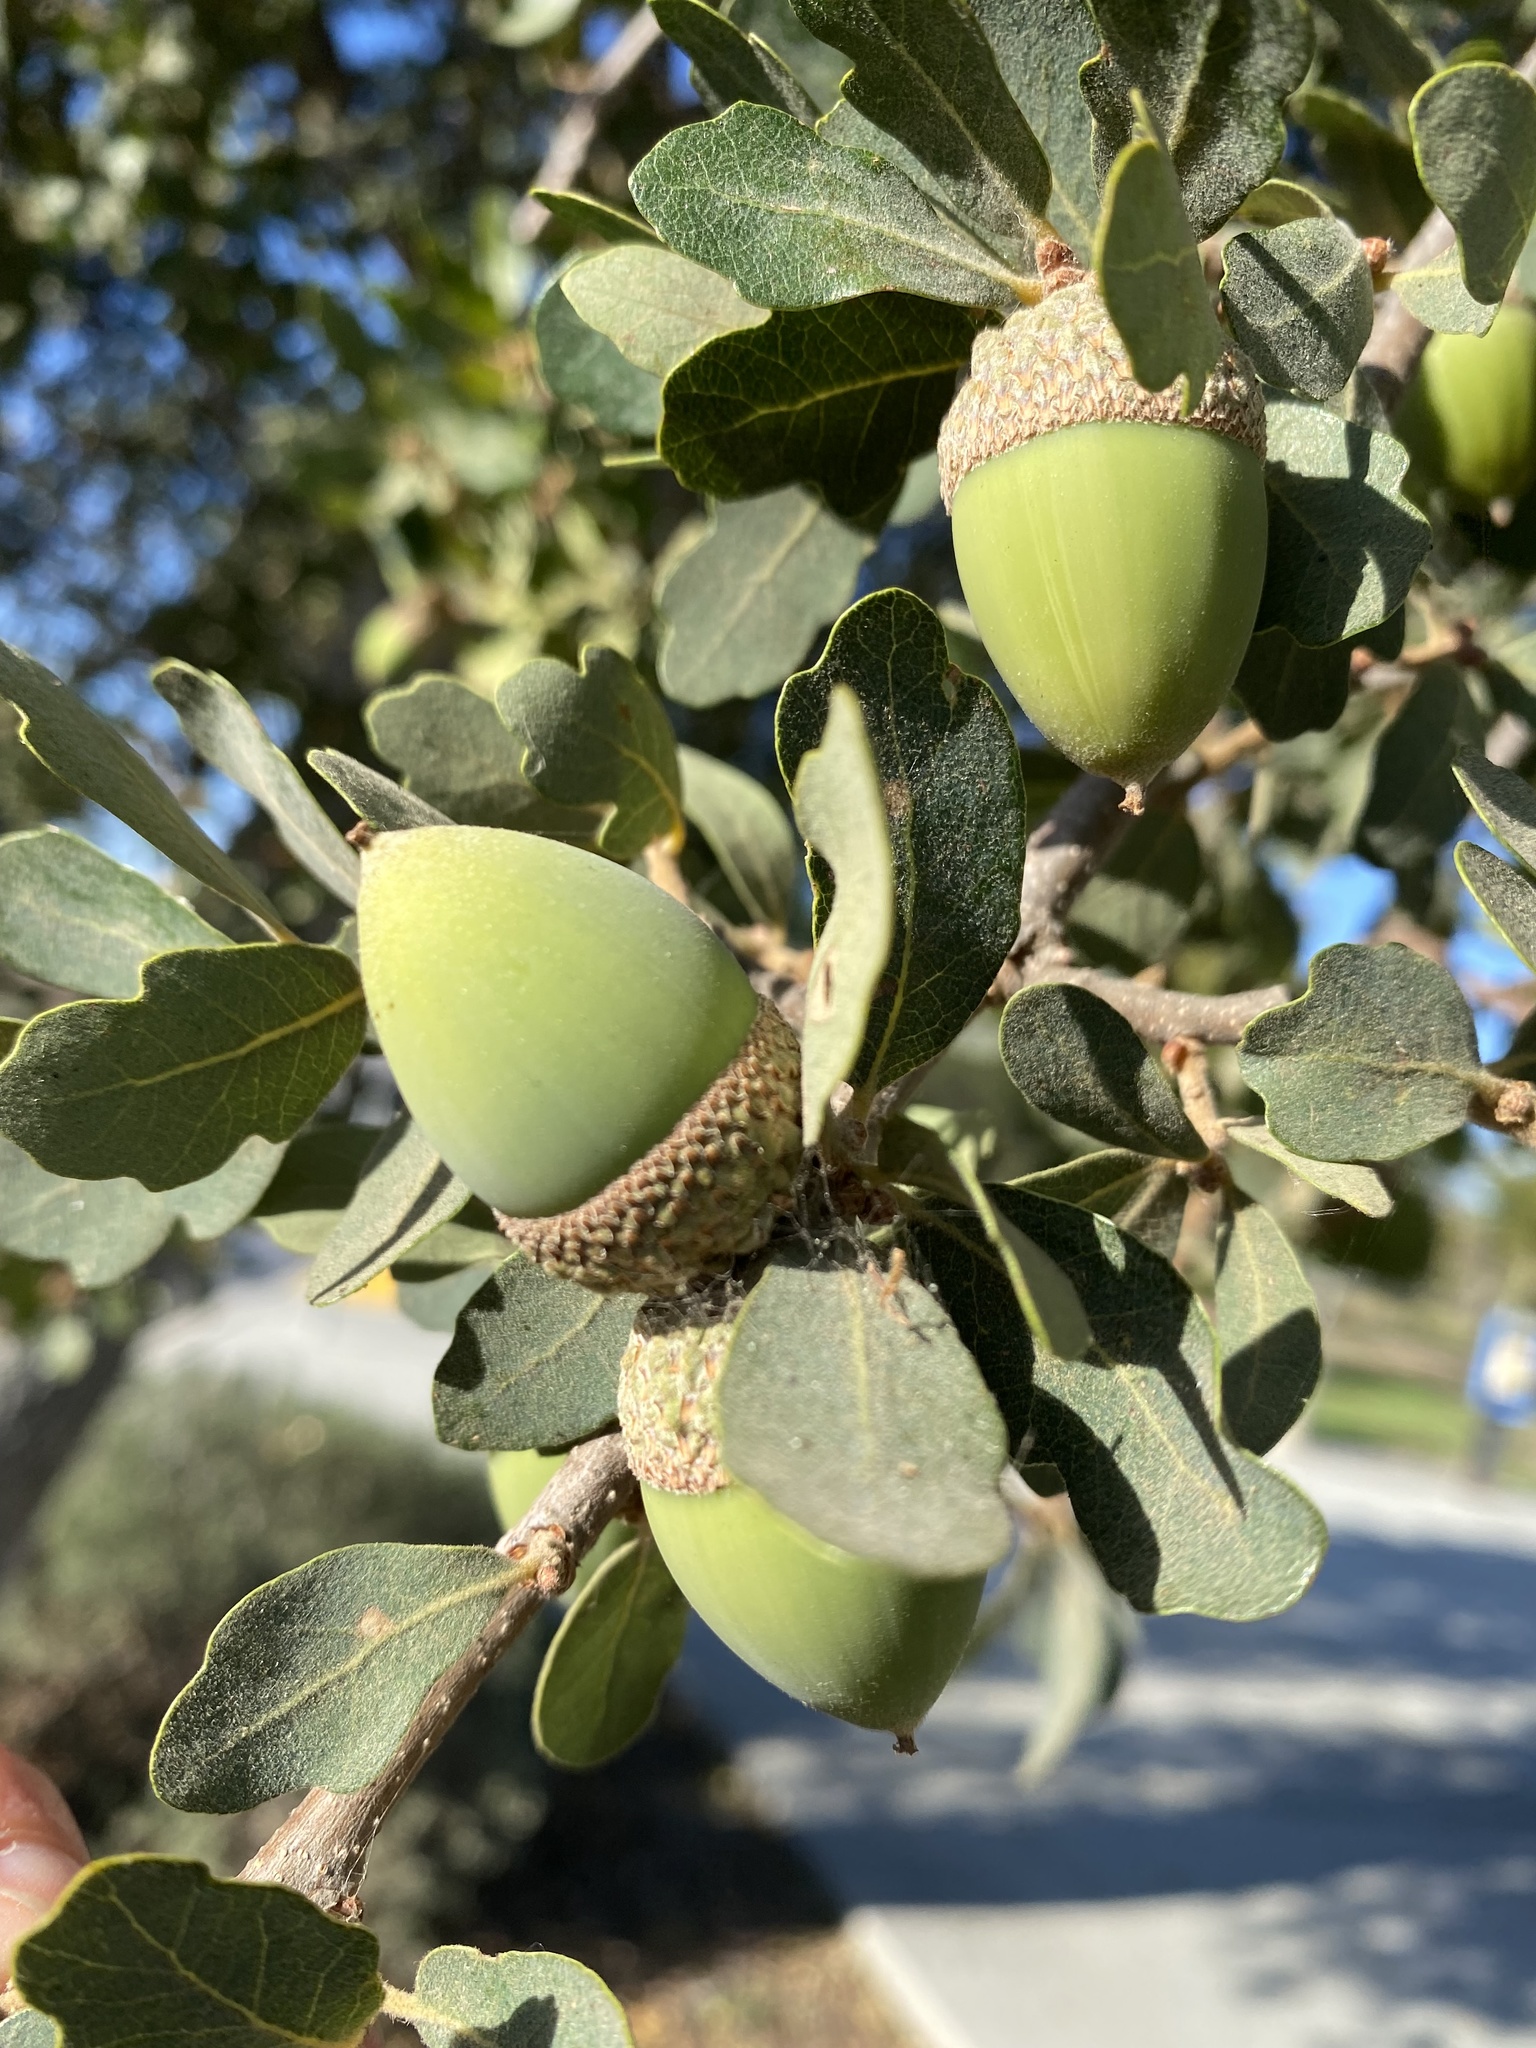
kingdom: Plantae
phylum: Tracheophyta
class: Magnoliopsida
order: Fagales
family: Fagaceae
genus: Quercus
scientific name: Quercus douglasii
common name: Blue oak
